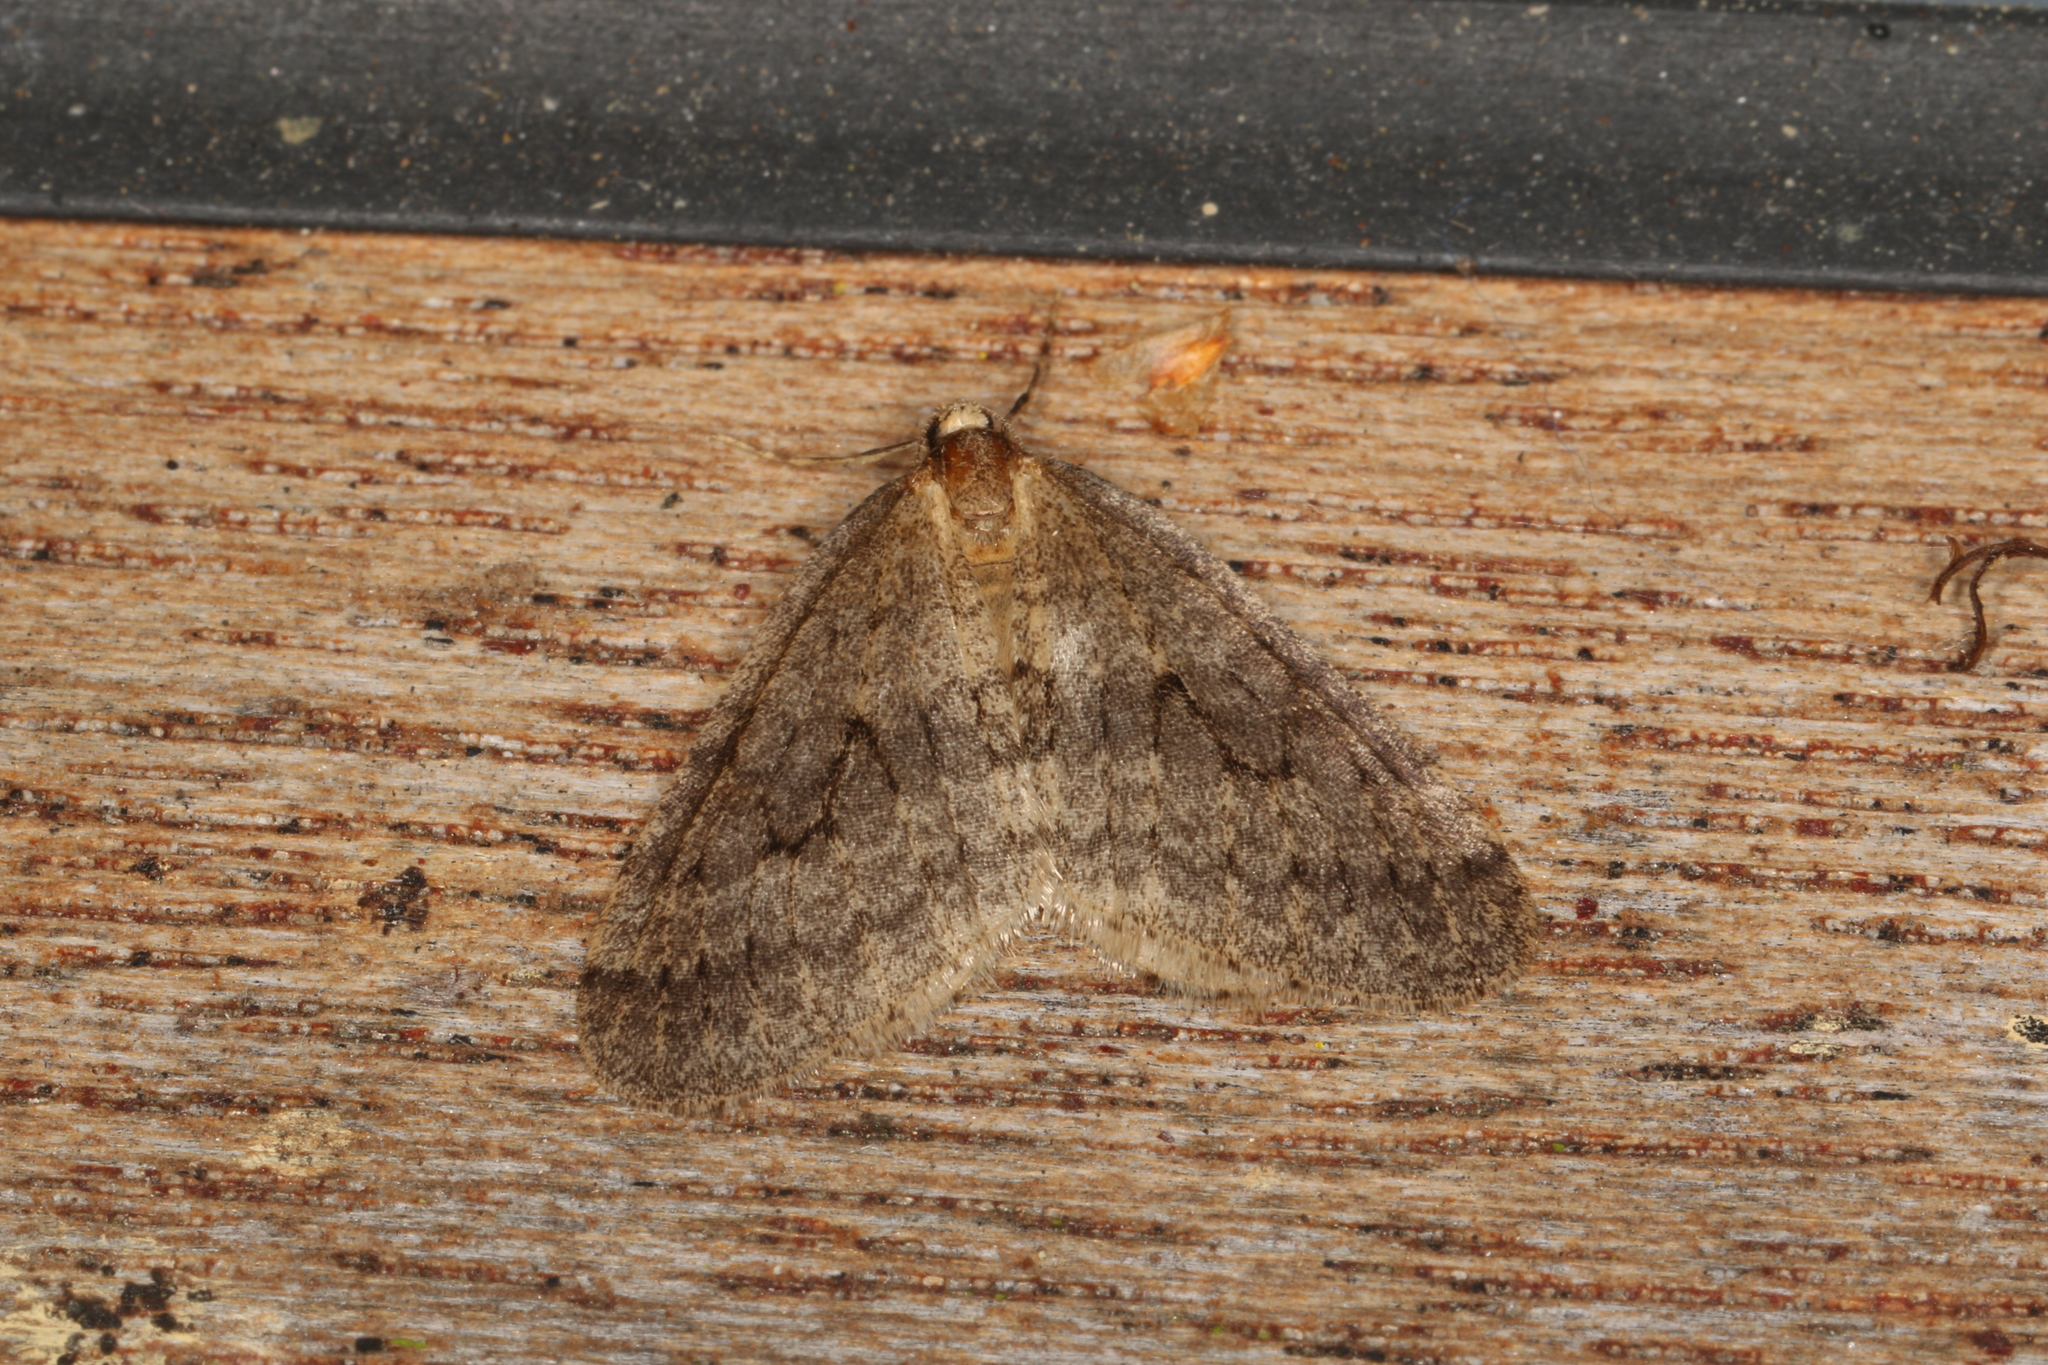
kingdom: Animalia
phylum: Arthropoda
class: Insecta
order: Lepidoptera
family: Geometridae
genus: Operophtera
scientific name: Operophtera brumata
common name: Winter moth
